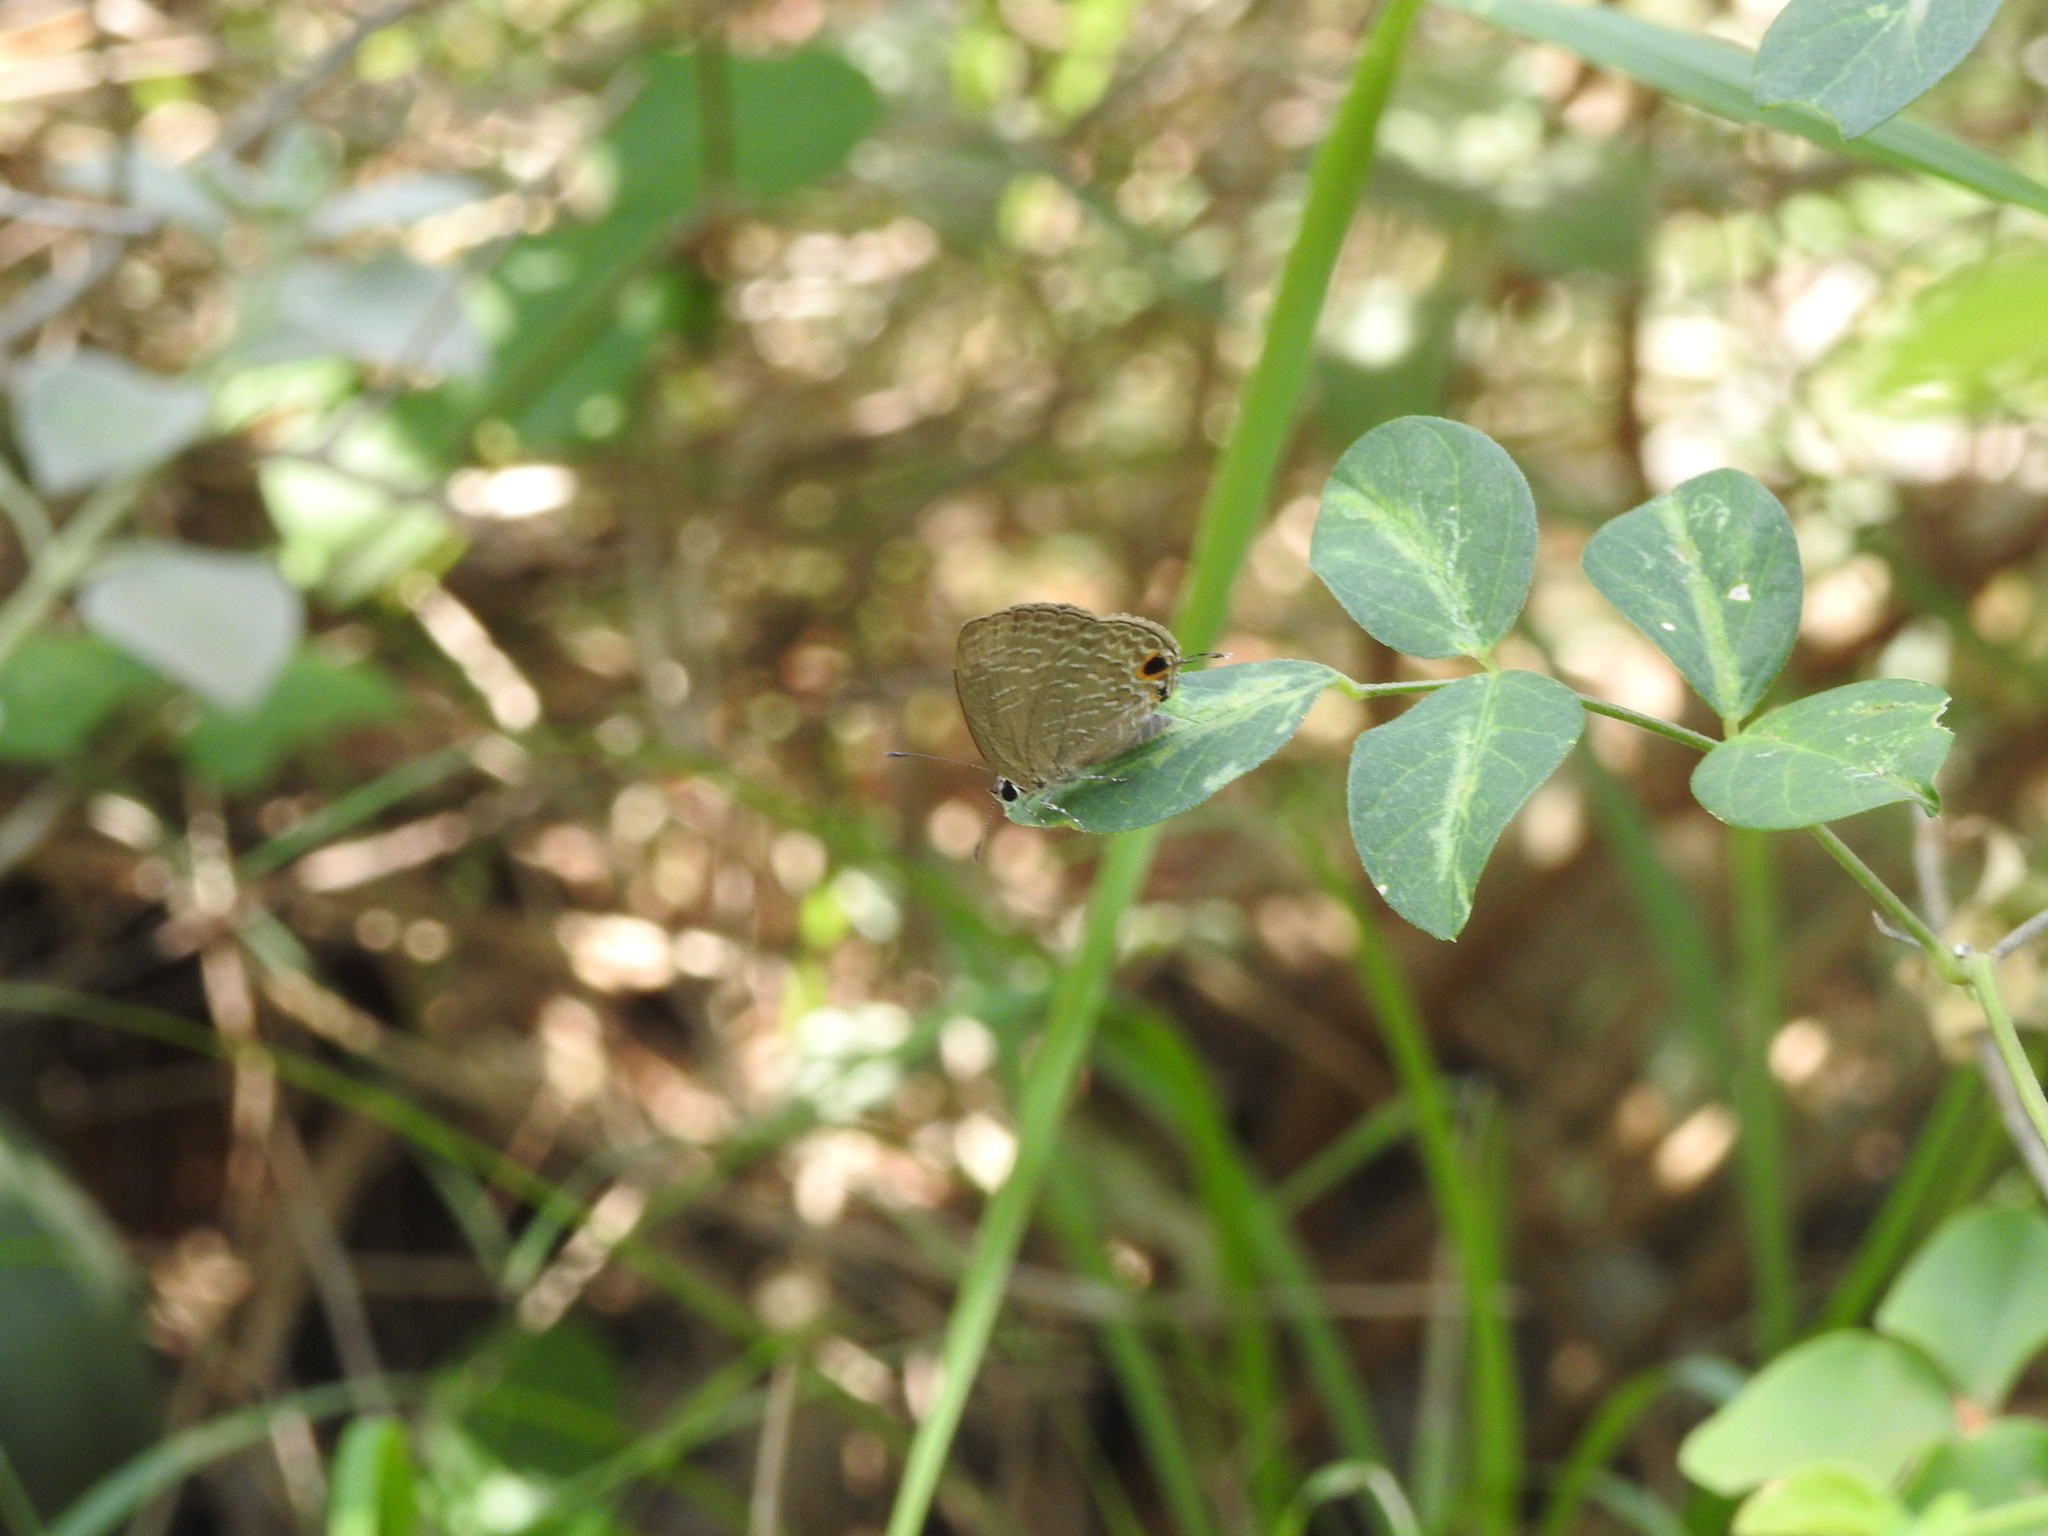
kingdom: Animalia
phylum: Arthropoda
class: Insecta
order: Lepidoptera
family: Lycaenidae
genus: Jamides
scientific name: Jamides bochus
